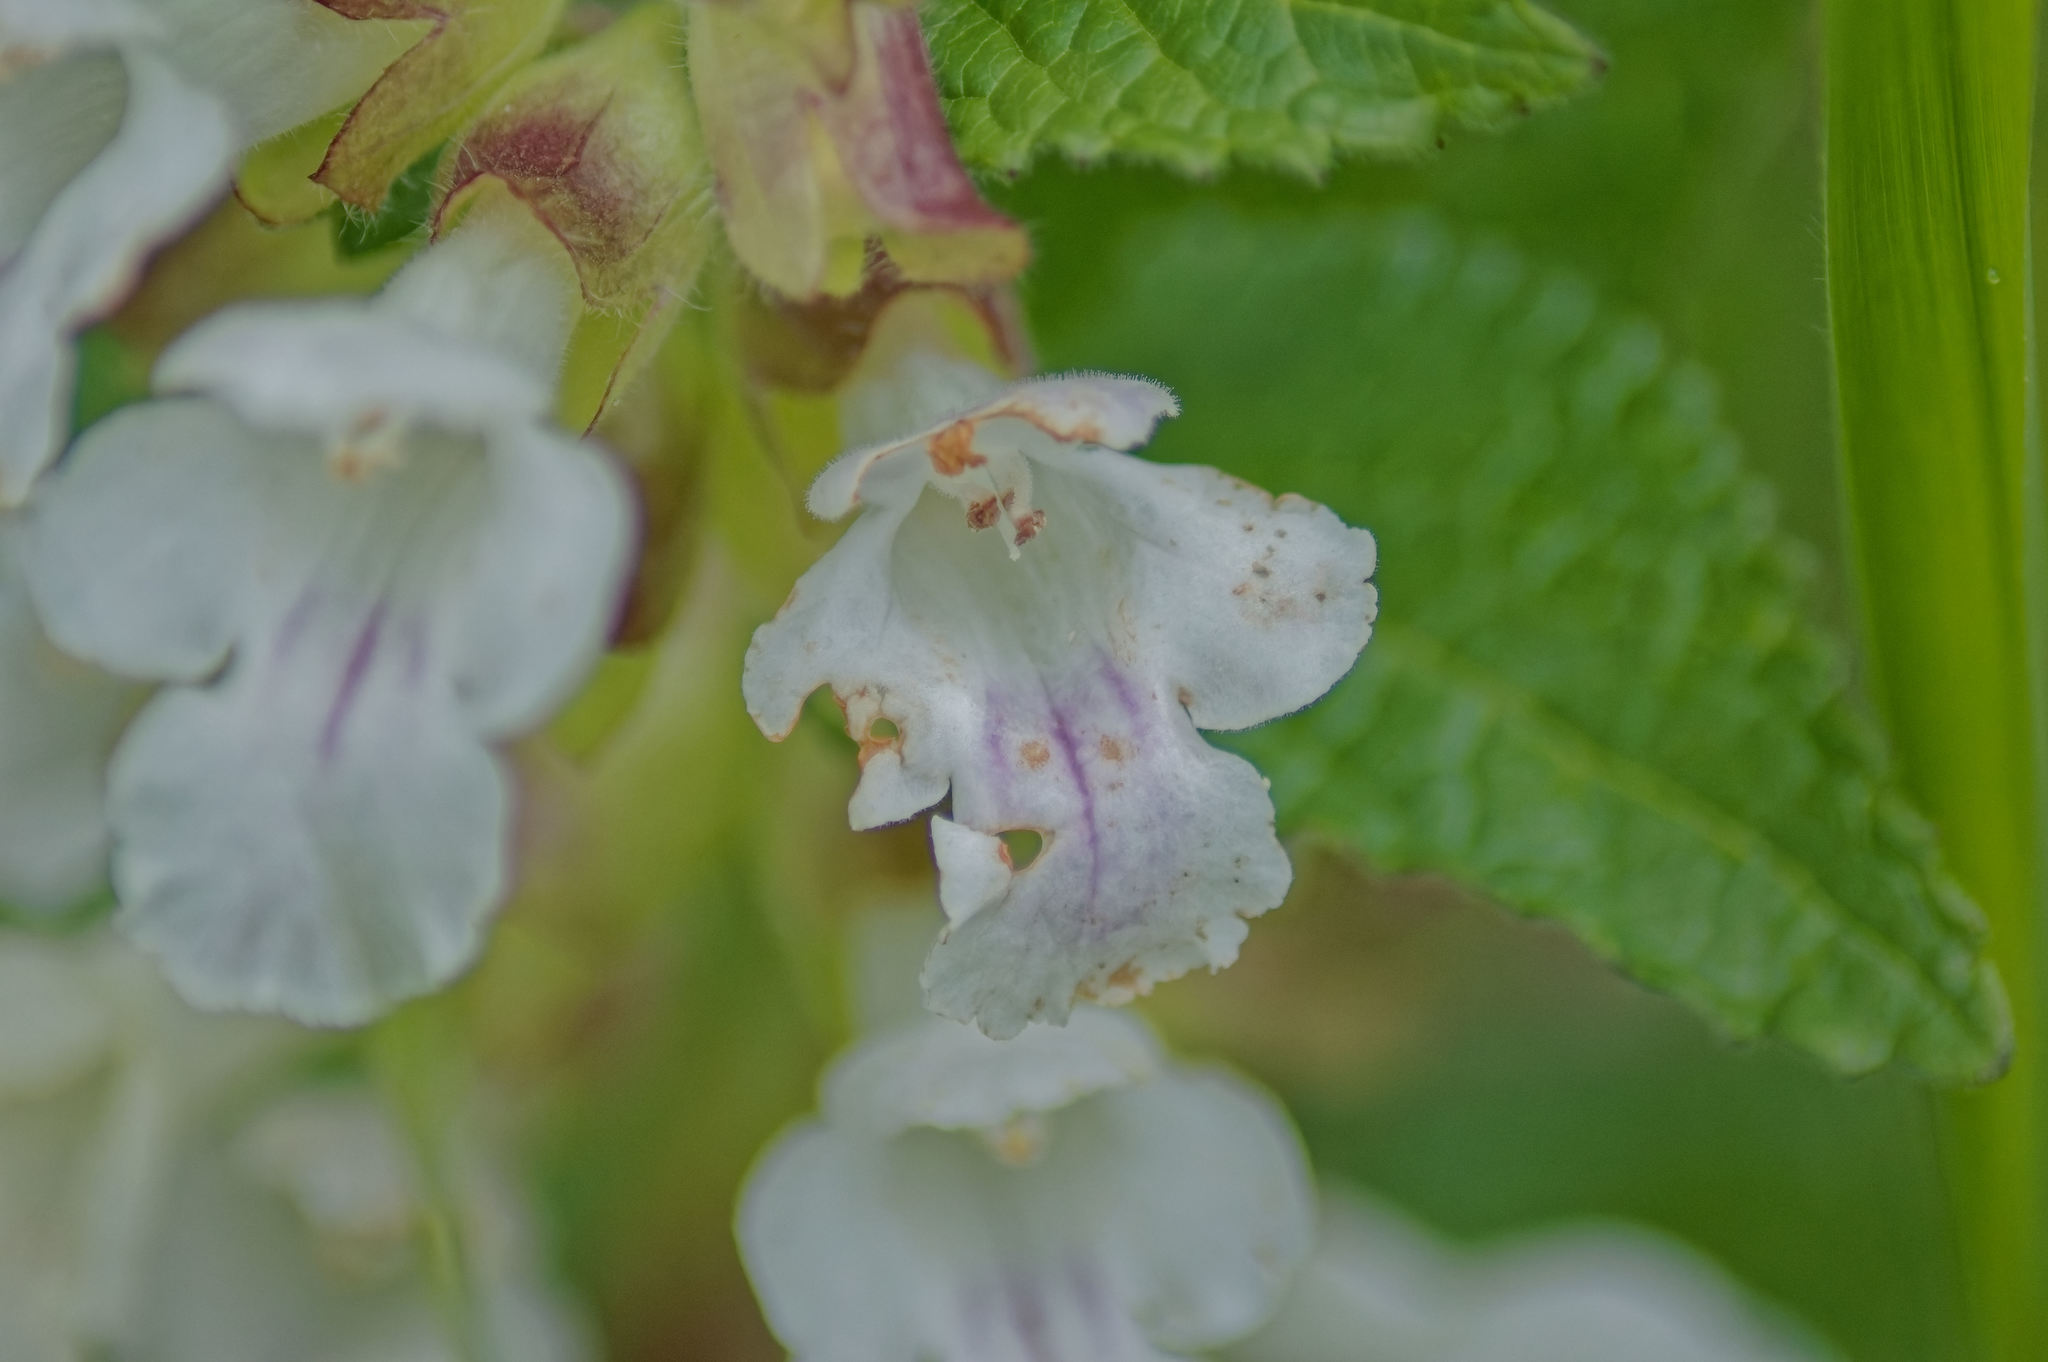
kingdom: Plantae
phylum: Tracheophyta
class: Magnoliopsida
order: Lamiales
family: Lamiaceae
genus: Melittis
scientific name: Melittis melissophyllum
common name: Bastard balm
